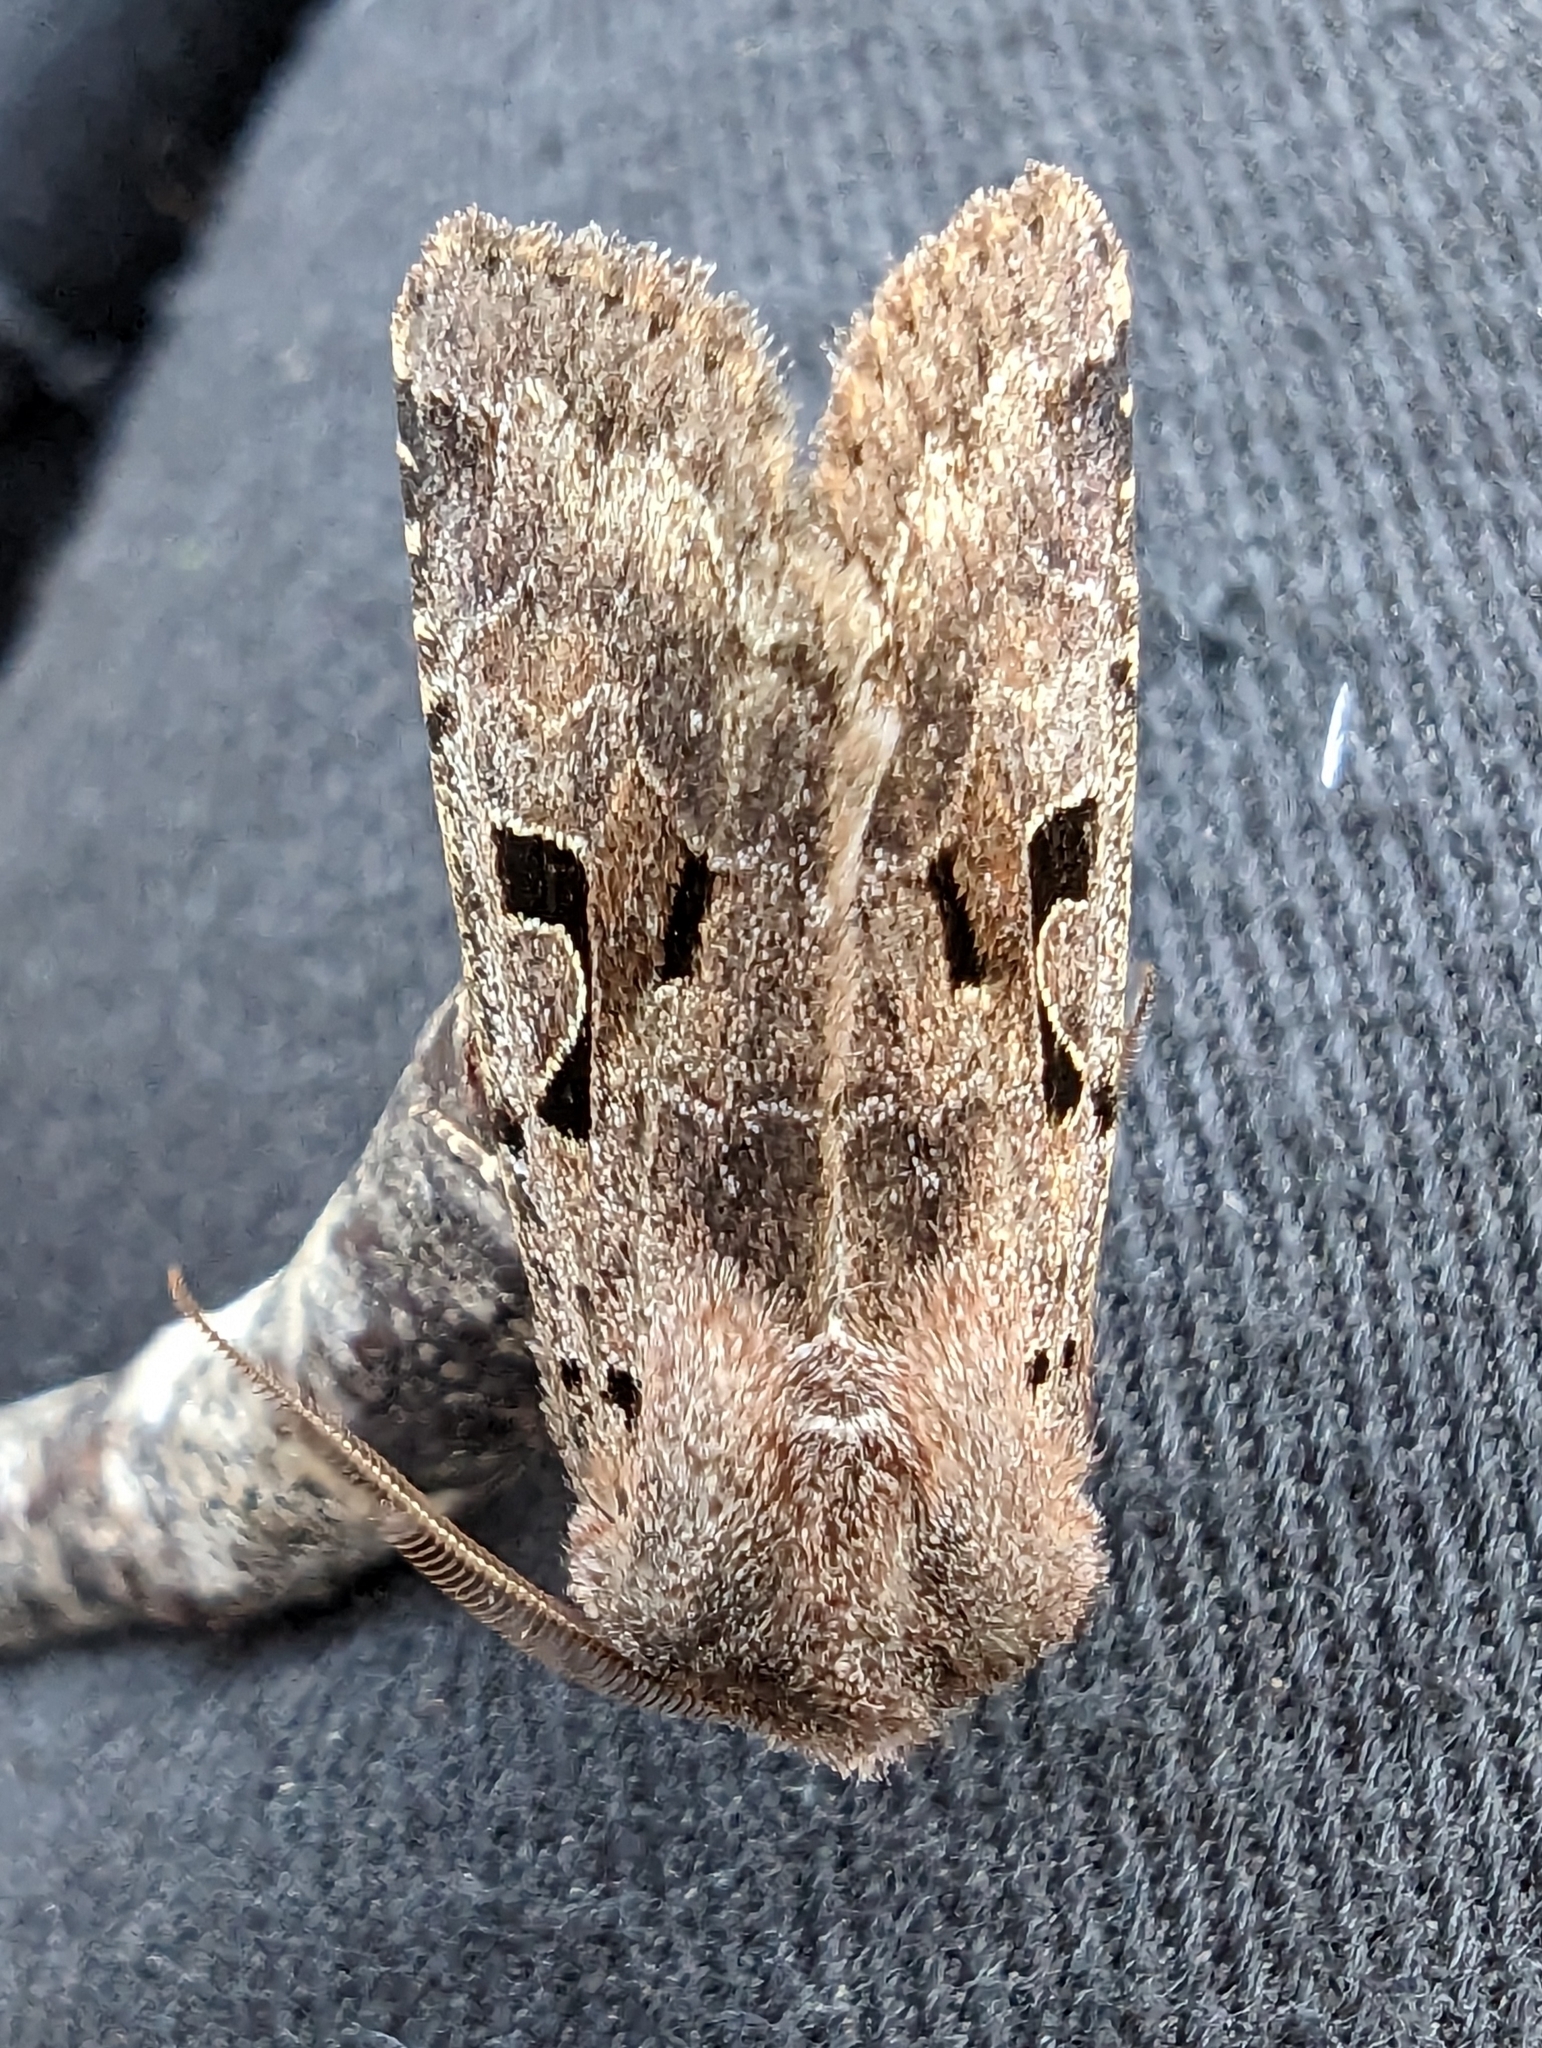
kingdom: Animalia
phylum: Arthropoda
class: Insecta
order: Lepidoptera
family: Noctuidae
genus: Orthosia
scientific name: Orthosia gothica
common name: Hebrew character
